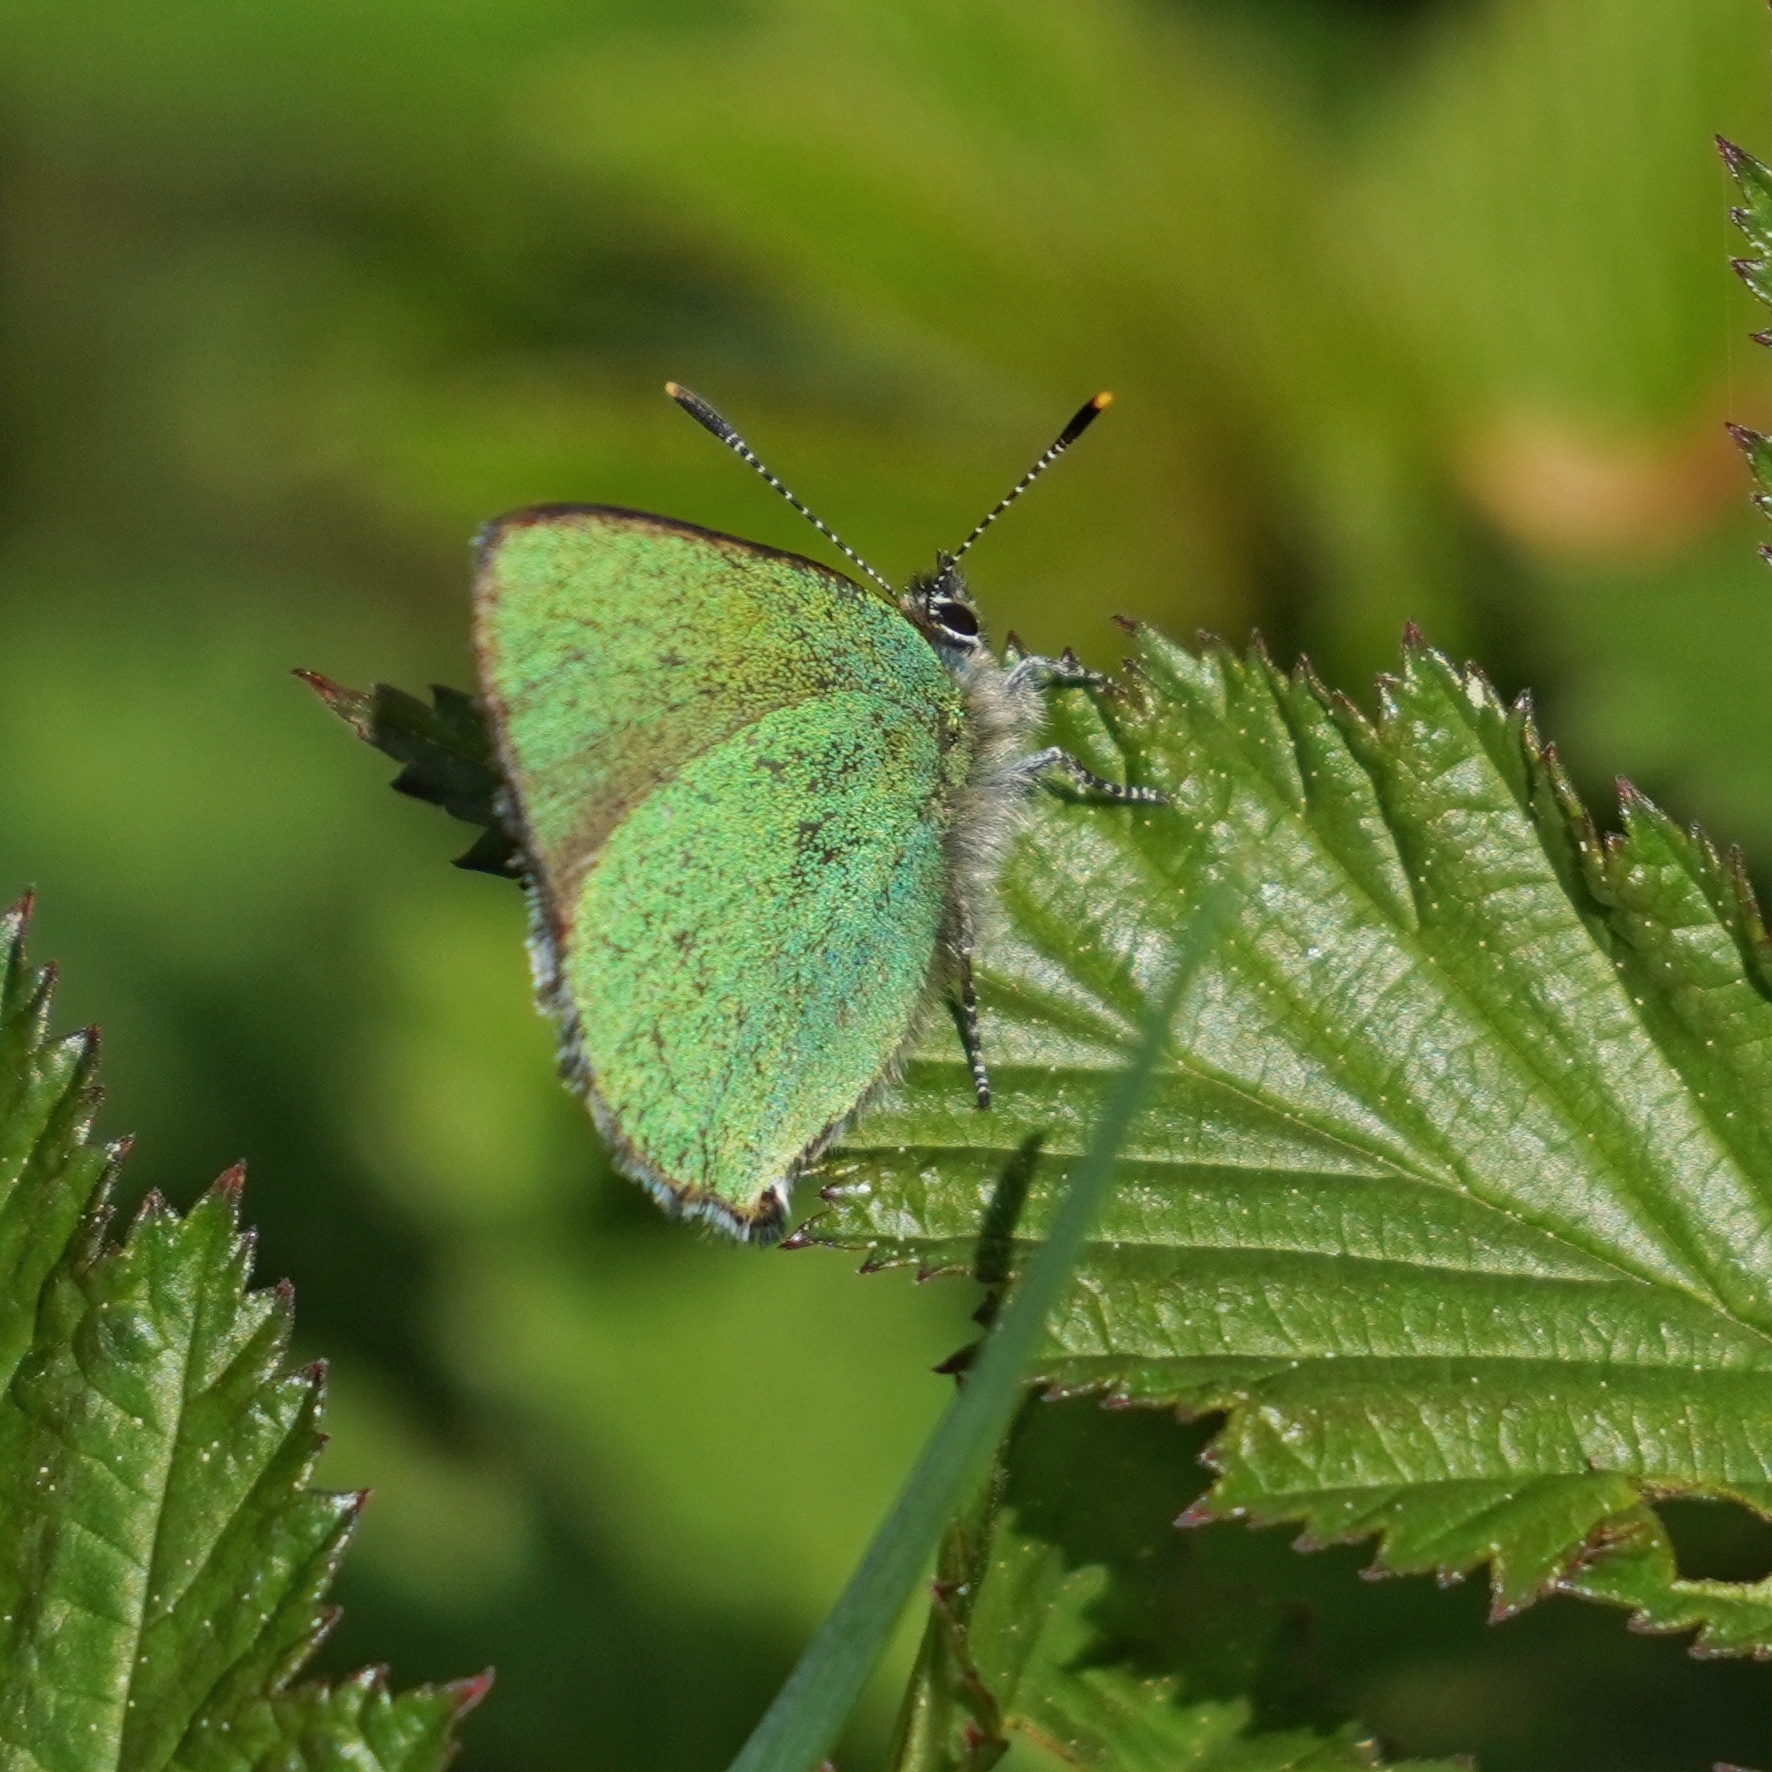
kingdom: Animalia
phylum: Arthropoda
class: Insecta
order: Lepidoptera
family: Lycaenidae
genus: Callophrys
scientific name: Callophrys rubi
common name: Green hairstreak
